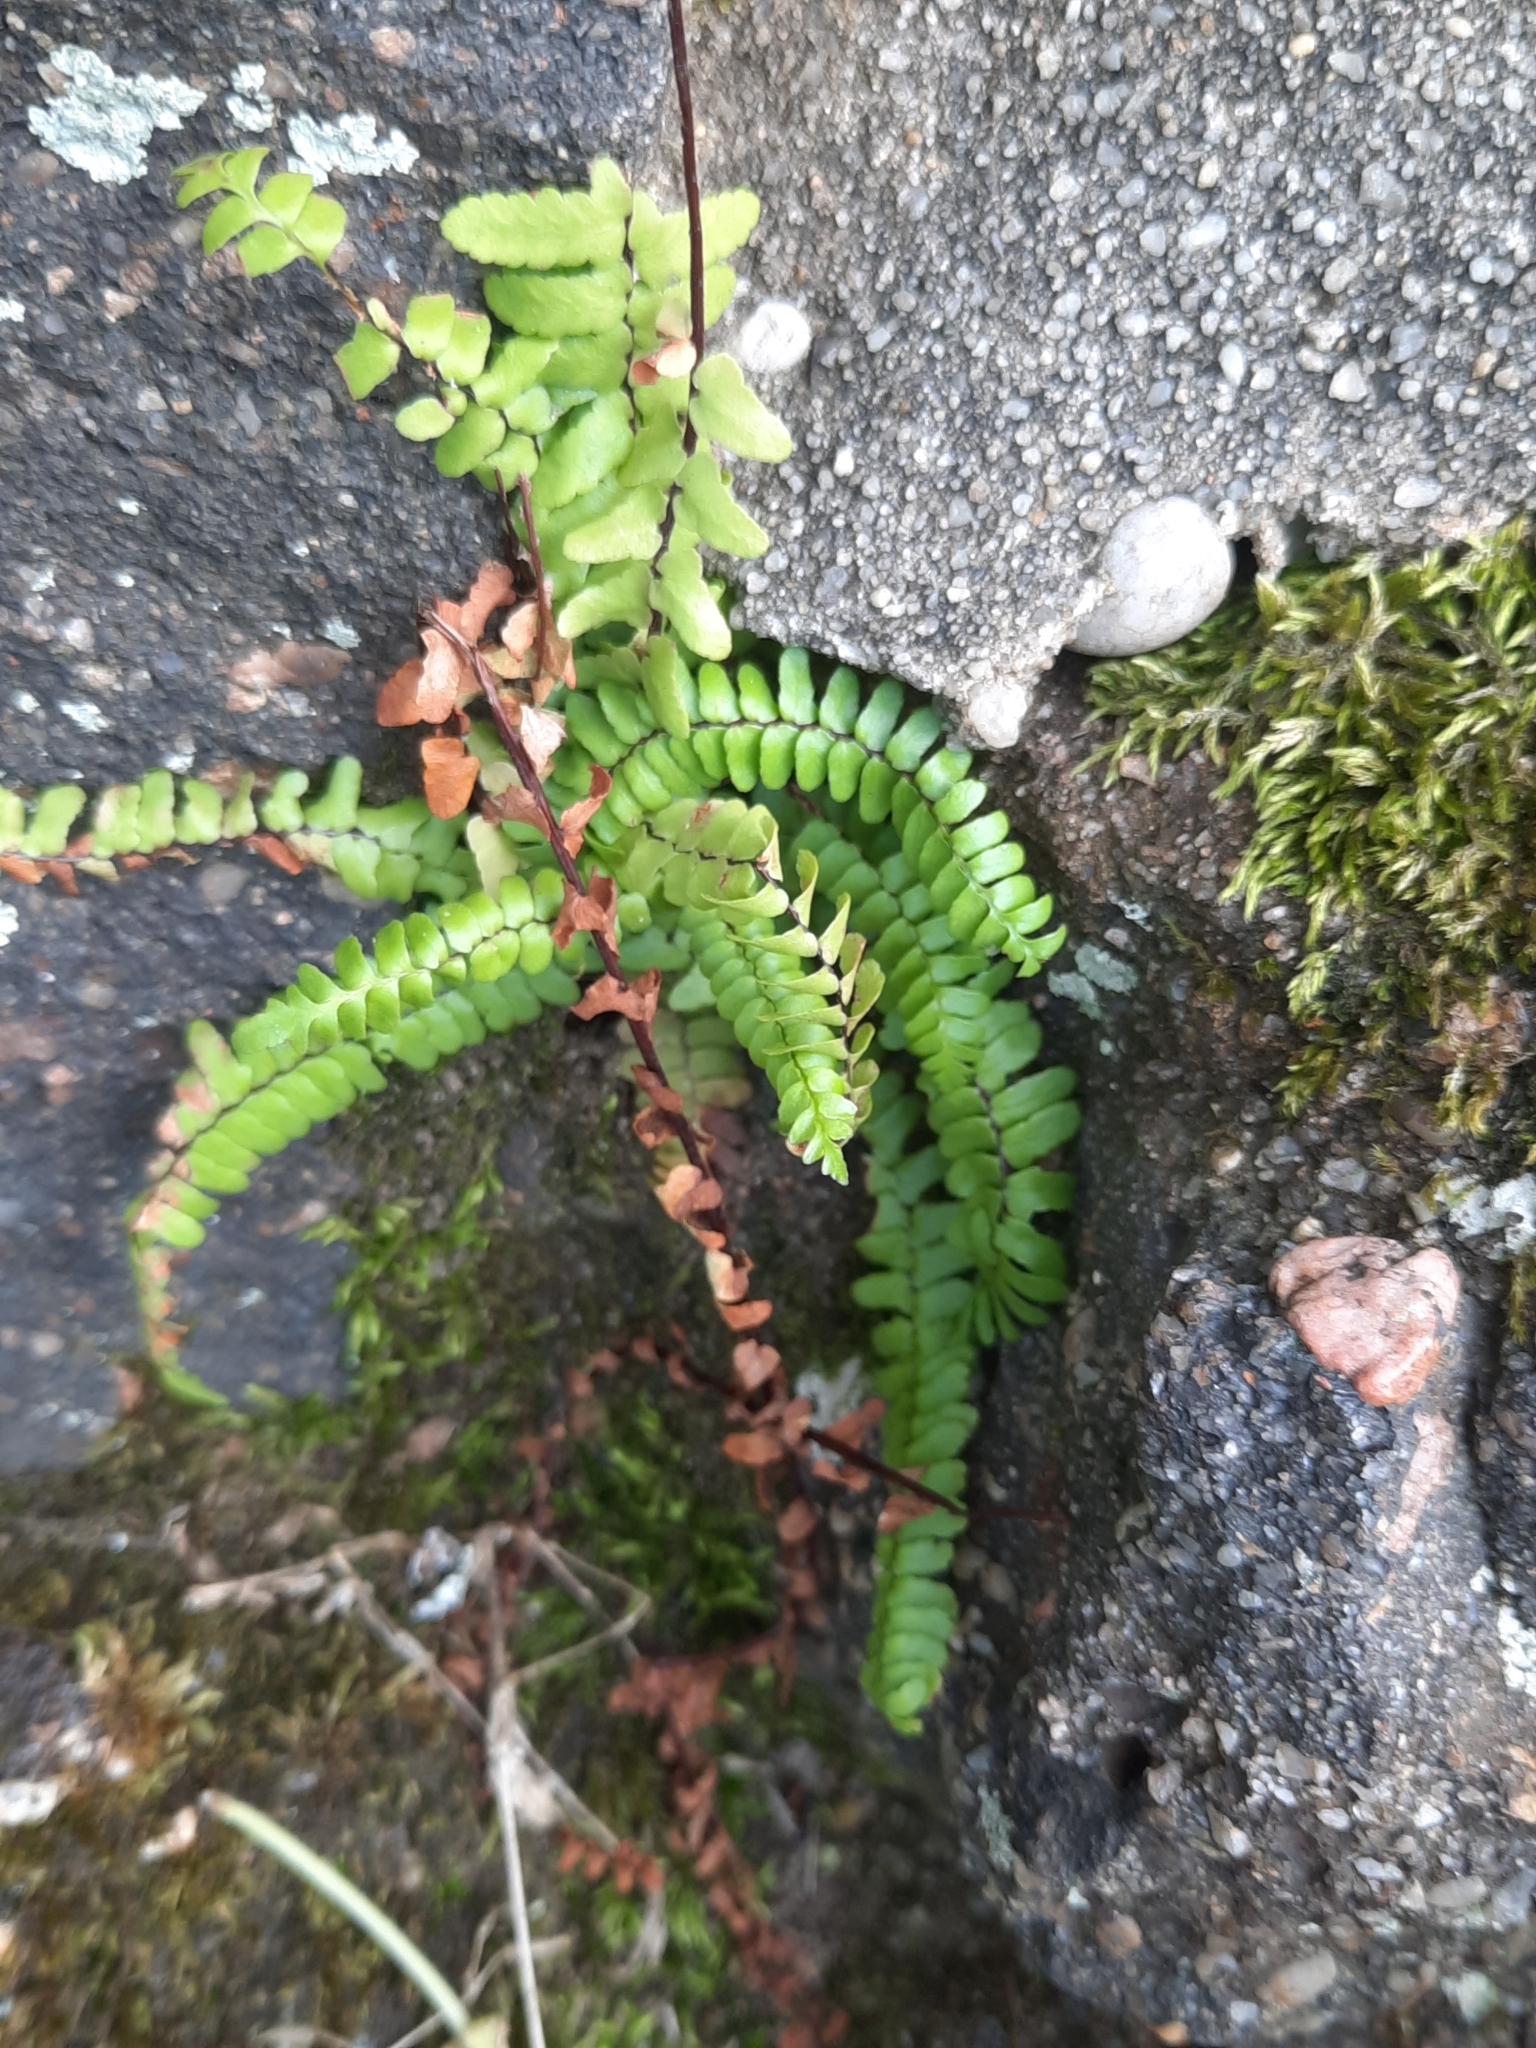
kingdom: Plantae
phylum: Tracheophyta
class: Polypodiopsida
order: Polypodiales
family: Aspleniaceae
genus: Asplenium
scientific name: Asplenium platyneuron
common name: Ebony spleenwort
